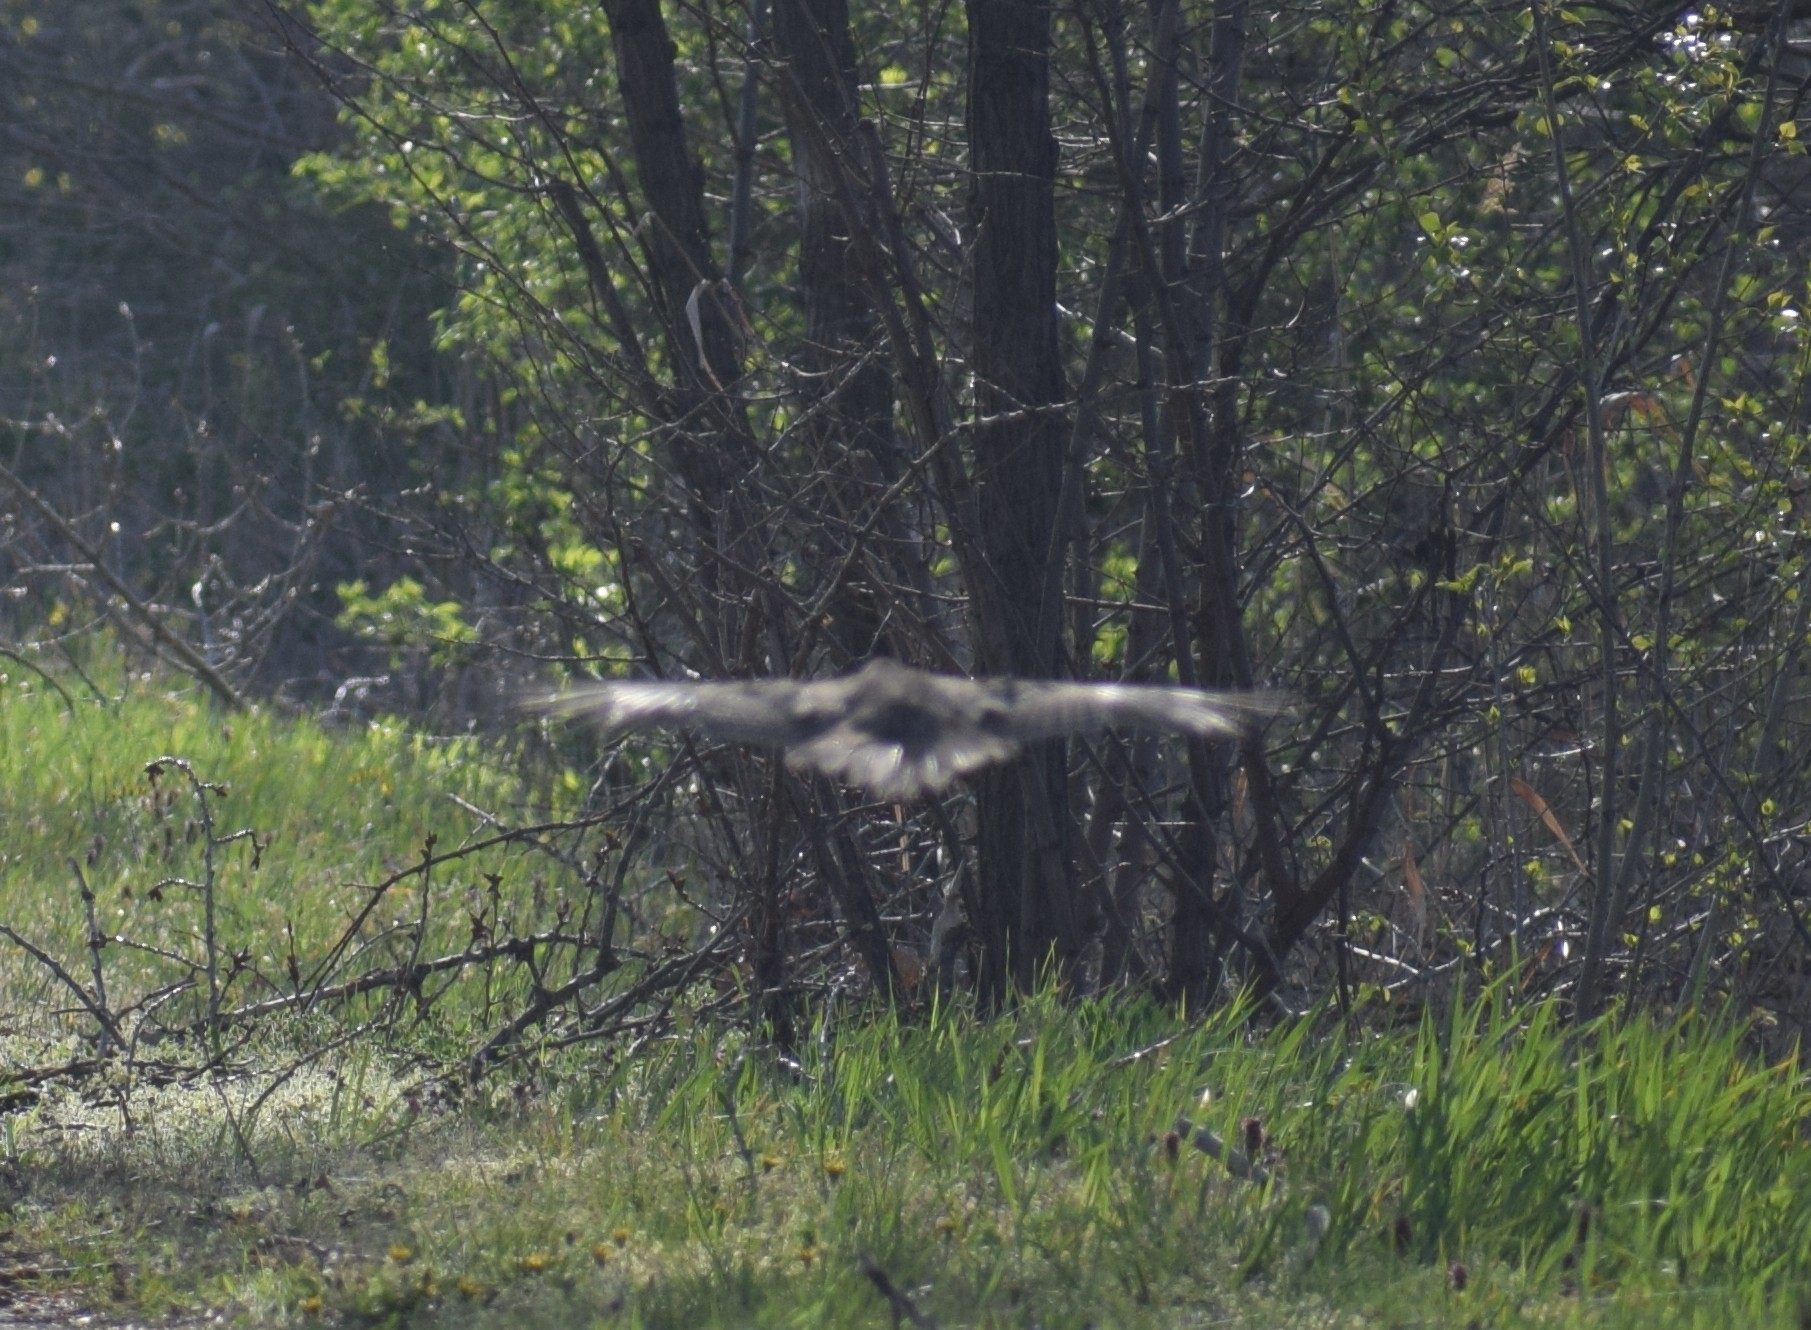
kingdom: Animalia
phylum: Chordata
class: Aves
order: Accipitriformes
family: Accipitridae
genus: Buteo
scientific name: Buteo buteo
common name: Common buzzard
